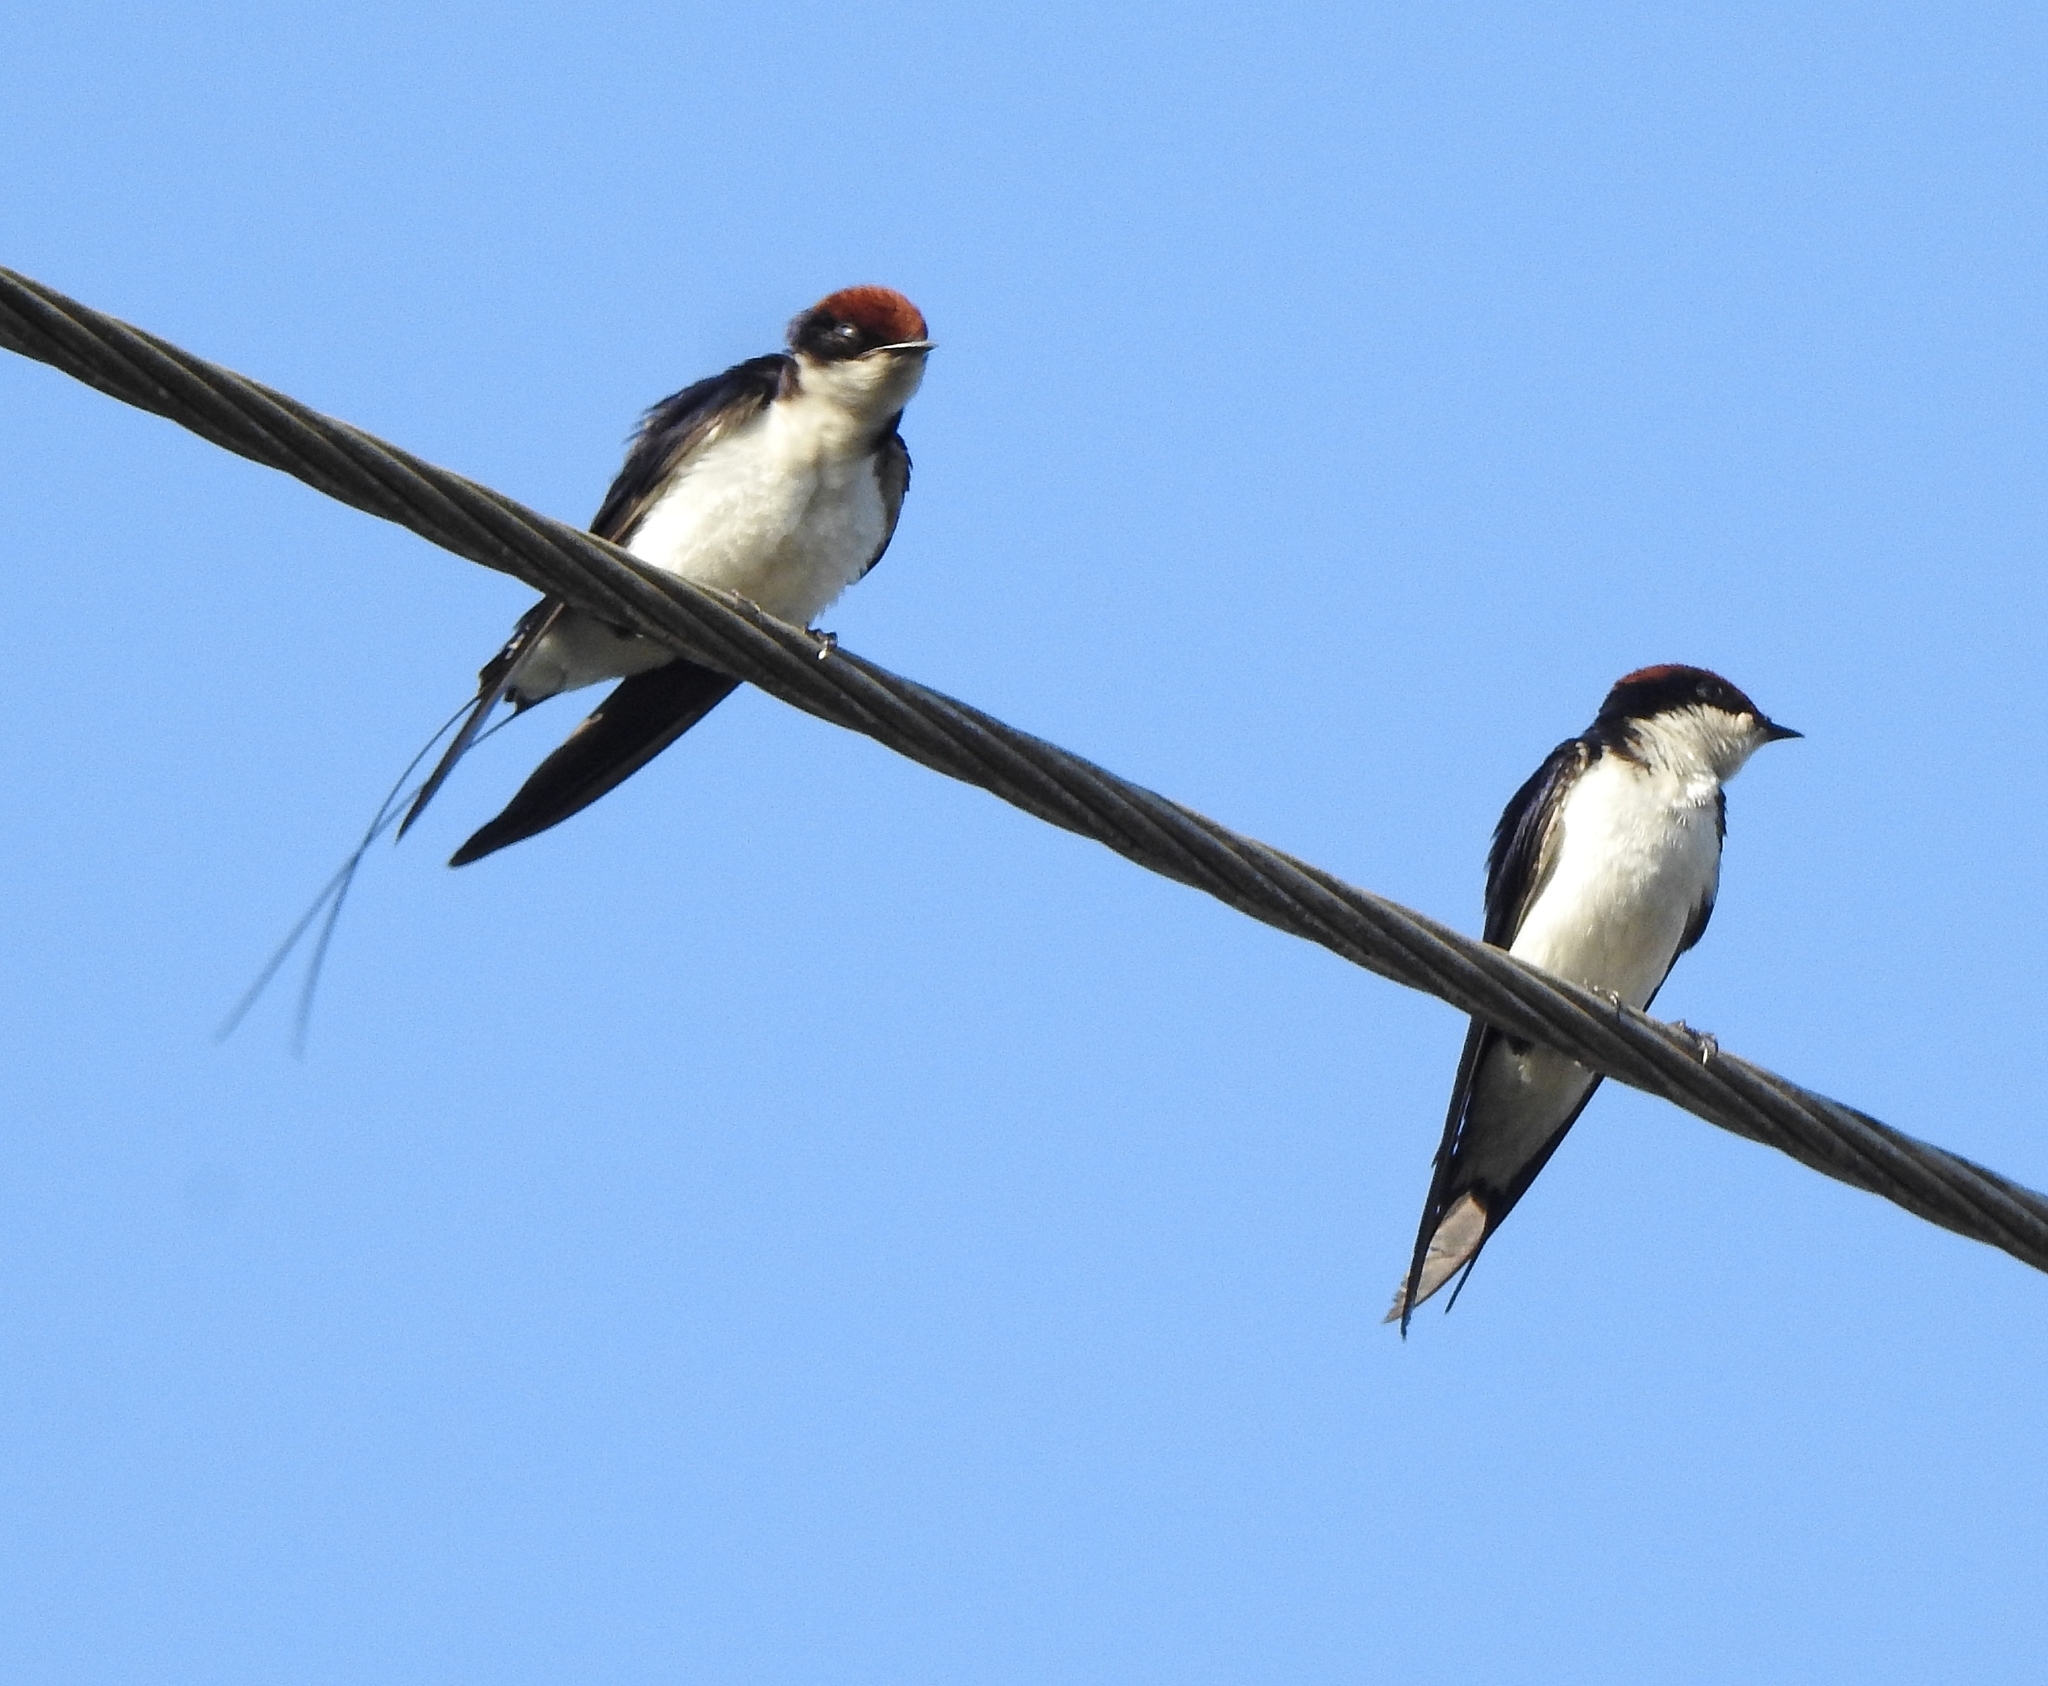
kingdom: Animalia
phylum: Chordata
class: Aves
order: Passeriformes
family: Hirundinidae
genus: Hirundo
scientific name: Hirundo smithii
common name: Wire-tailed swallow
